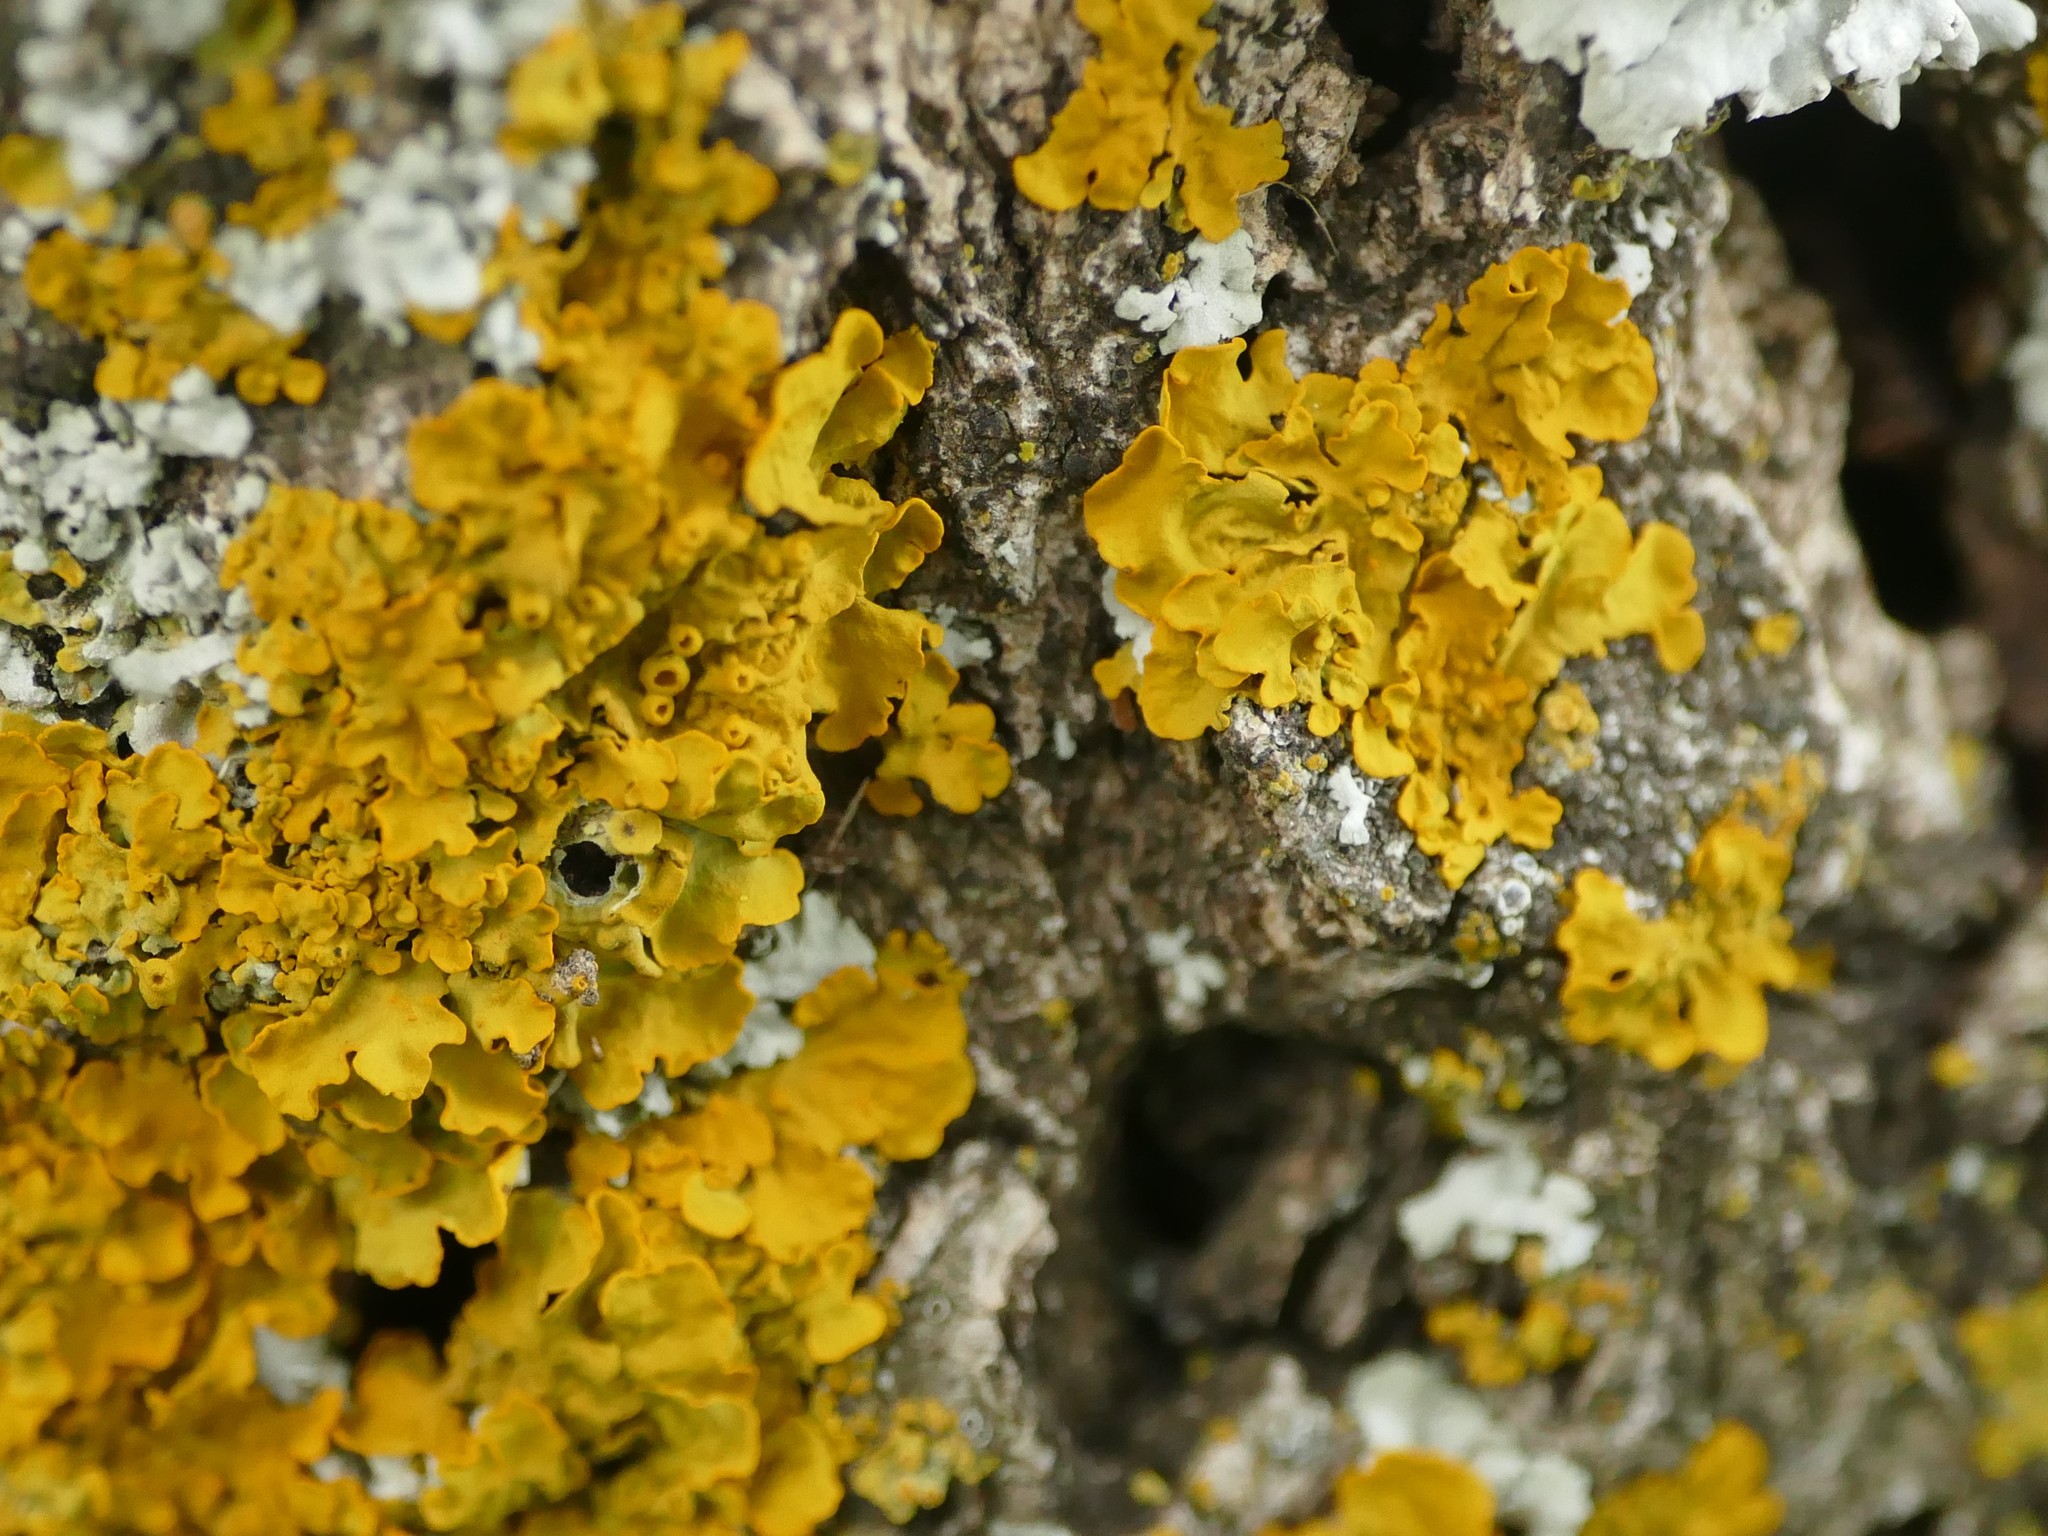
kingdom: Fungi
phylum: Ascomycota
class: Lecanoromycetes
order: Teloschistales
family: Teloschistaceae
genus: Xanthoria
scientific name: Xanthoria parietina
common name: Common orange lichen
